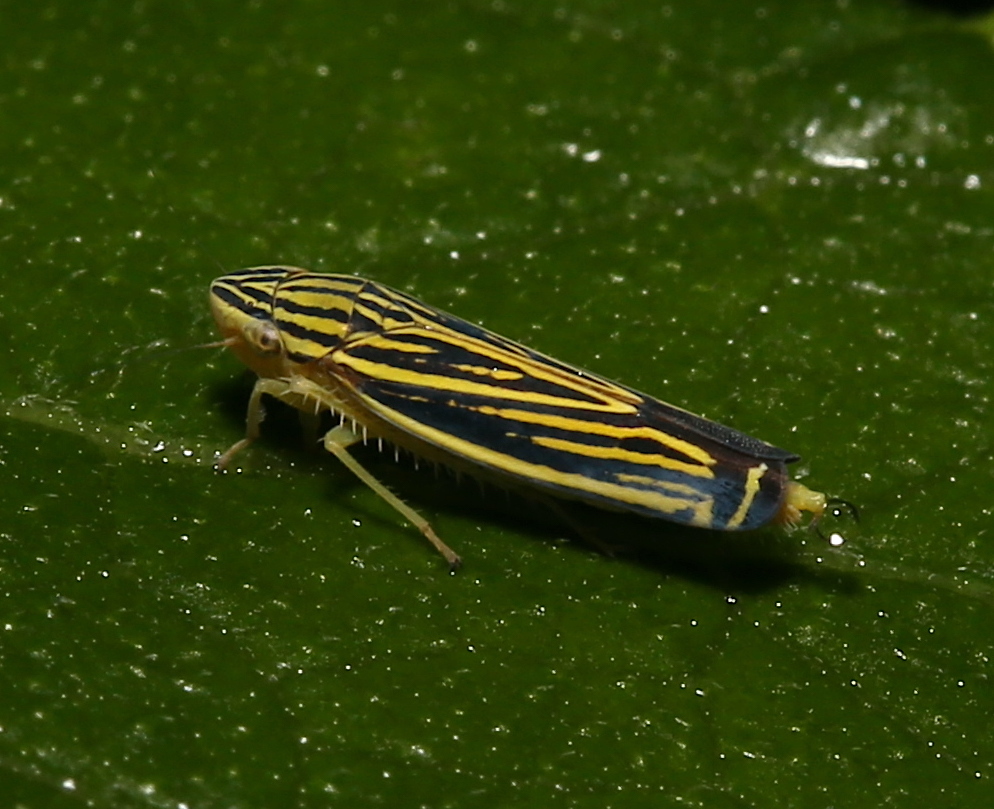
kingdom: Animalia
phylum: Arthropoda
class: Insecta
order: Hemiptera
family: Cicadellidae
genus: Sibovia
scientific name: Sibovia occatoria
